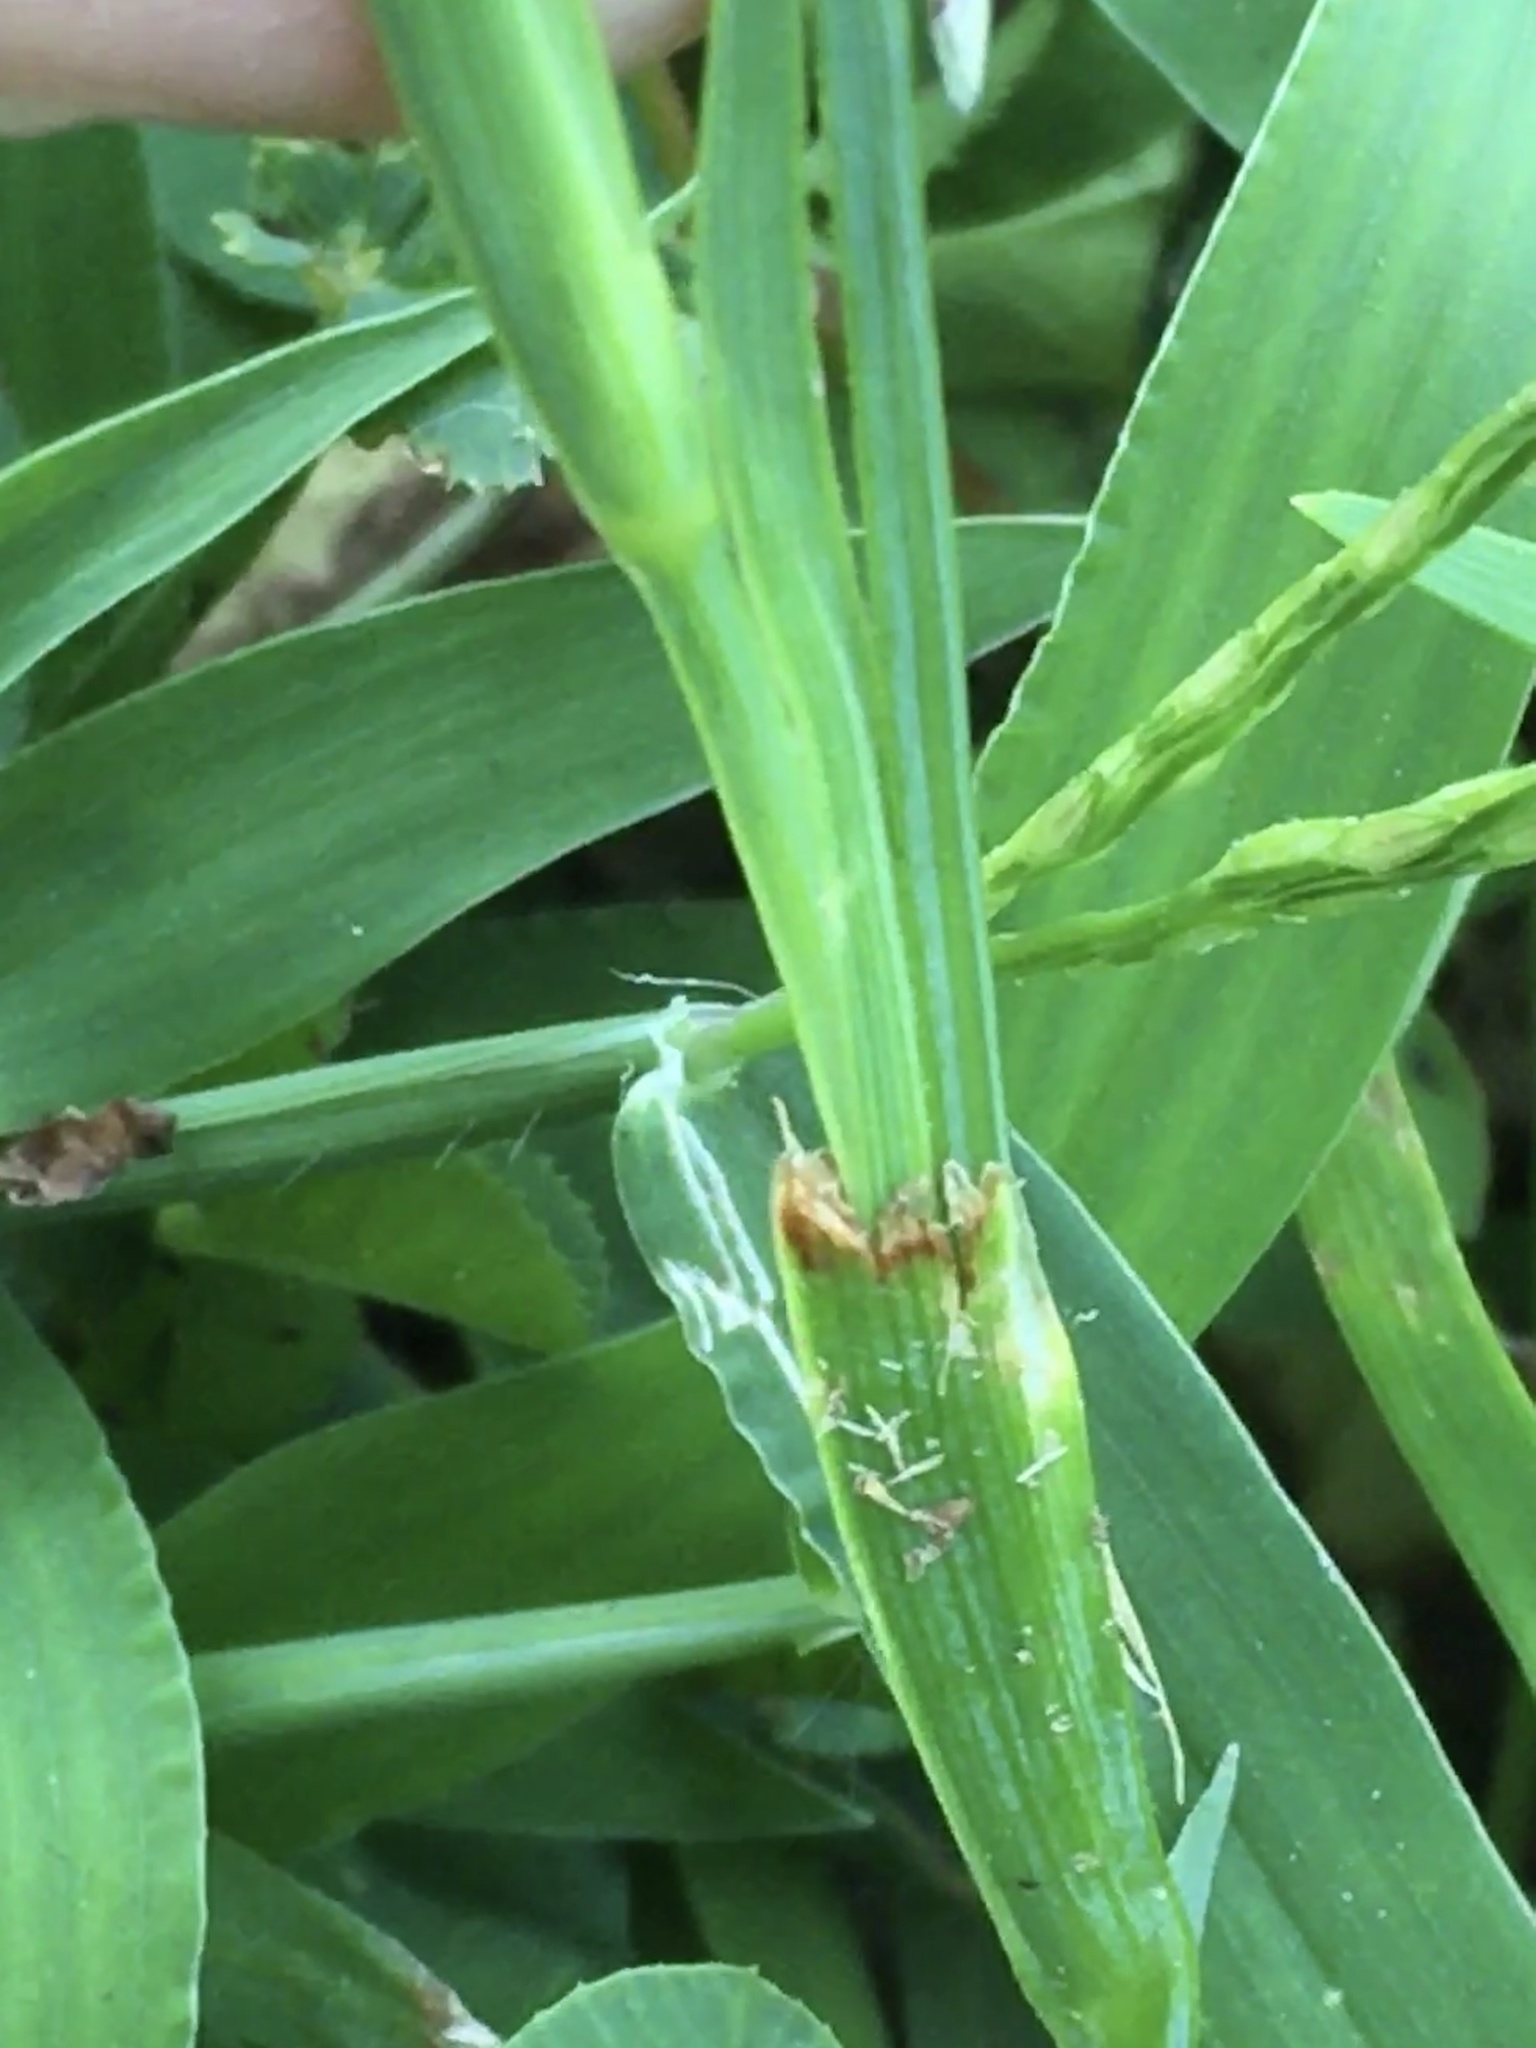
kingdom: Plantae
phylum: Tracheophyta
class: Liliopsida
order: Asparagales
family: Iridaceae
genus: Sisyrinchium
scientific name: Sisyrinchium micranthum
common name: Bermuda pigroot
